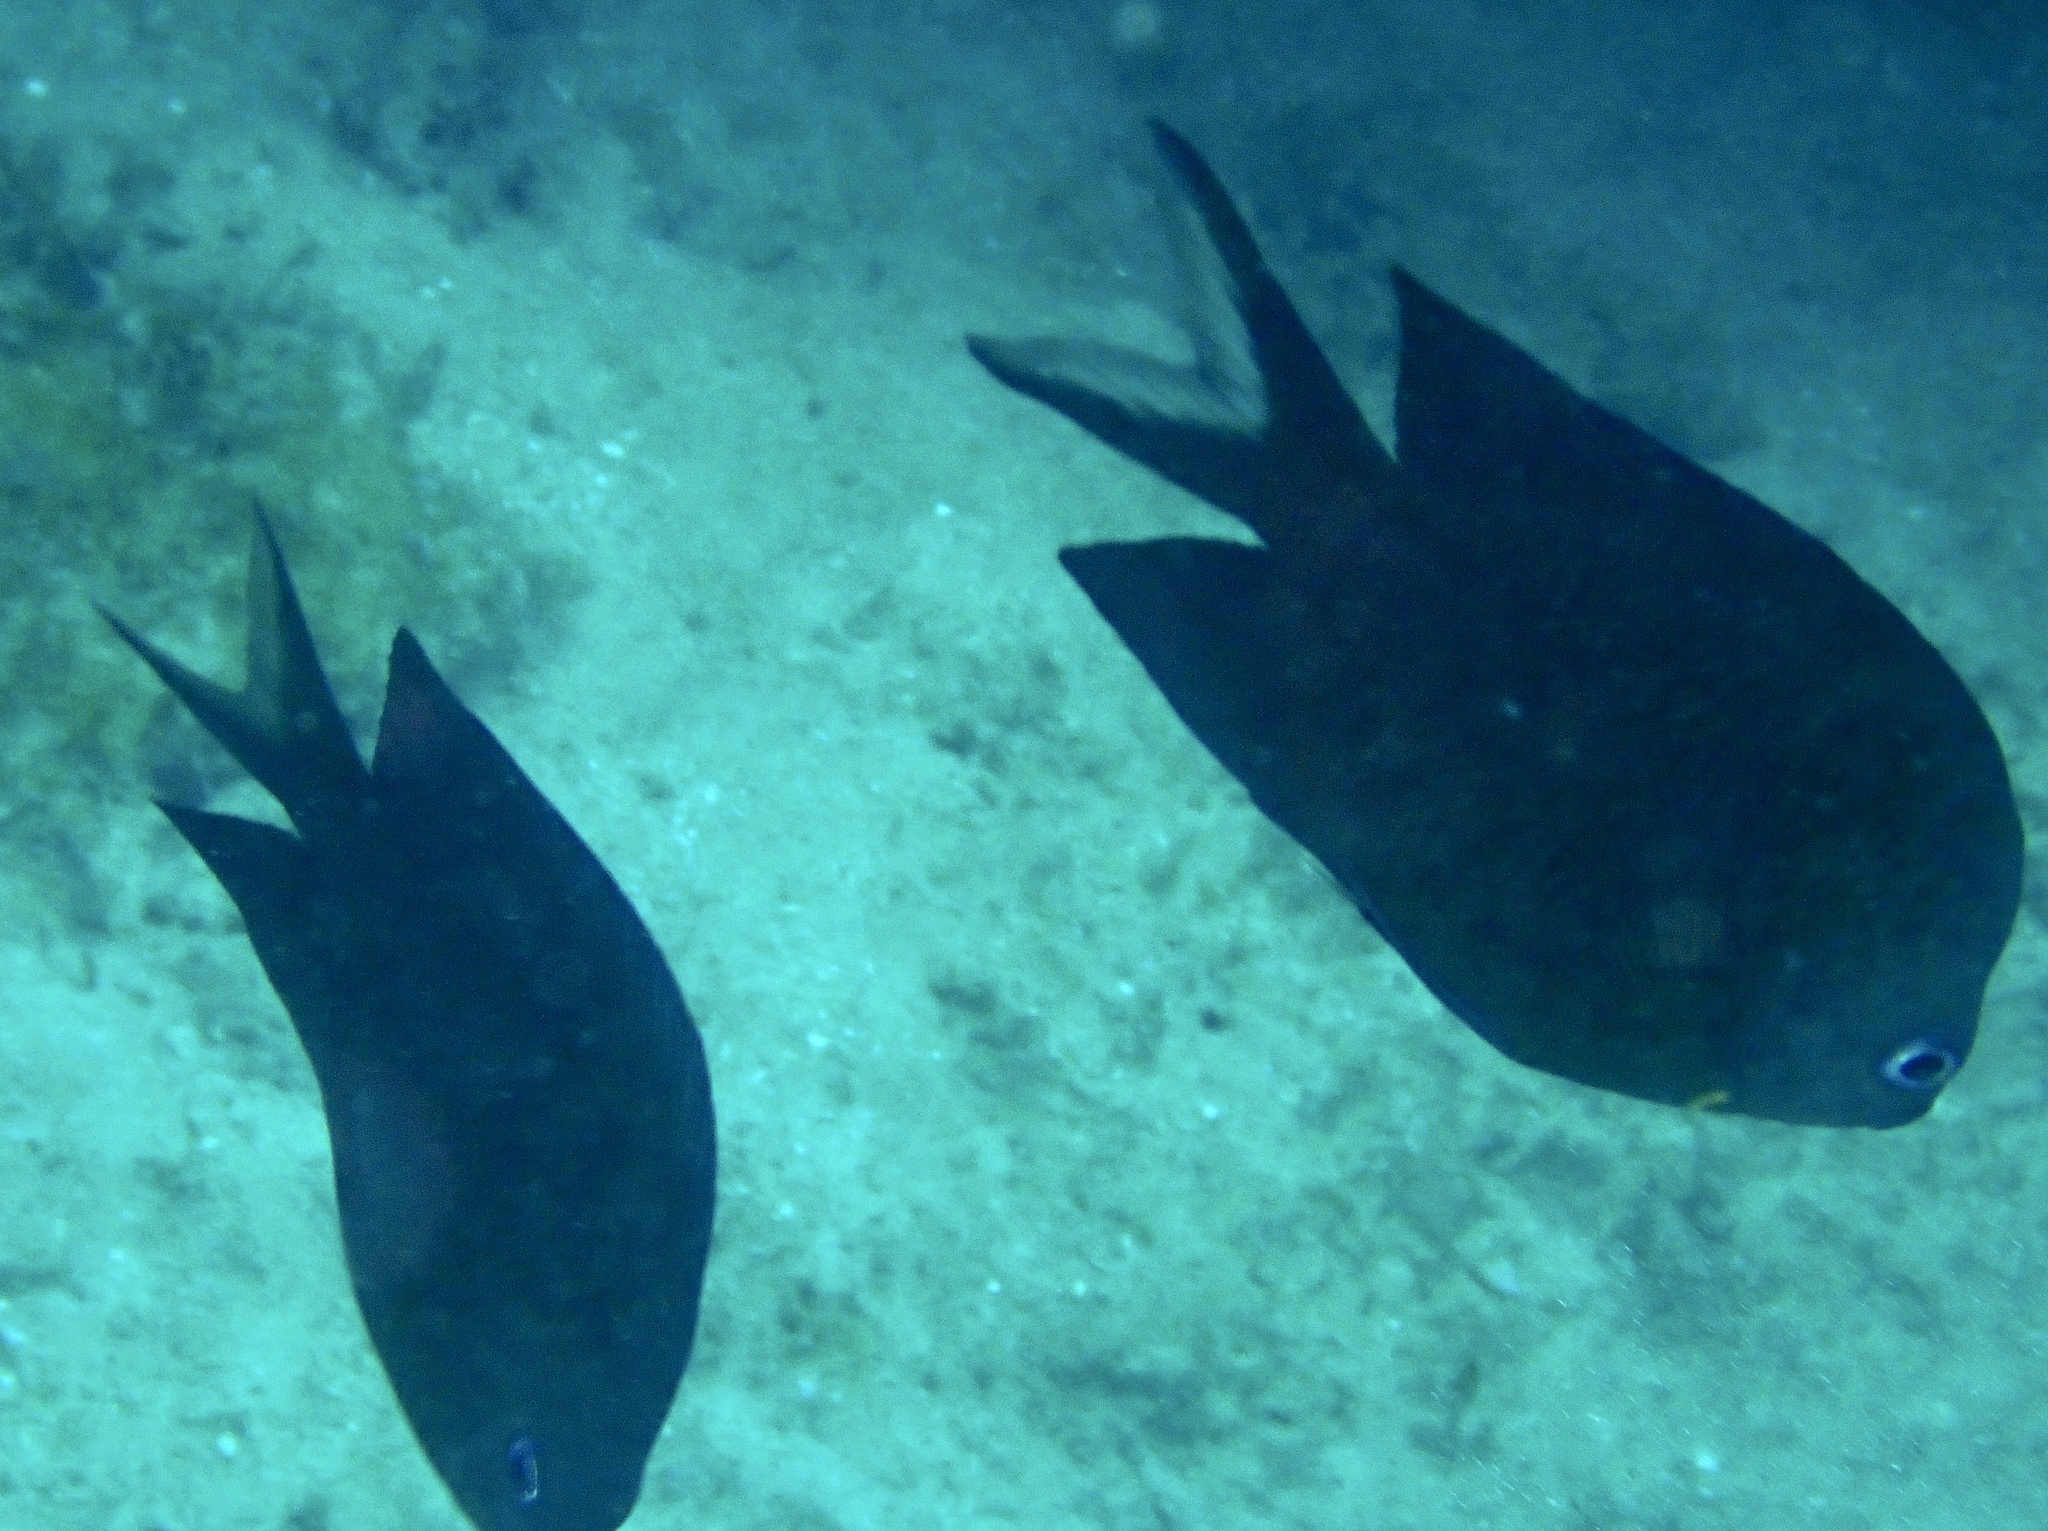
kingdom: Animalia
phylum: Chordata
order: Perciformes
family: Pomacentridae
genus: Acanthochromis
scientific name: Acanthochromis polyacanthus
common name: Spiny chromis
